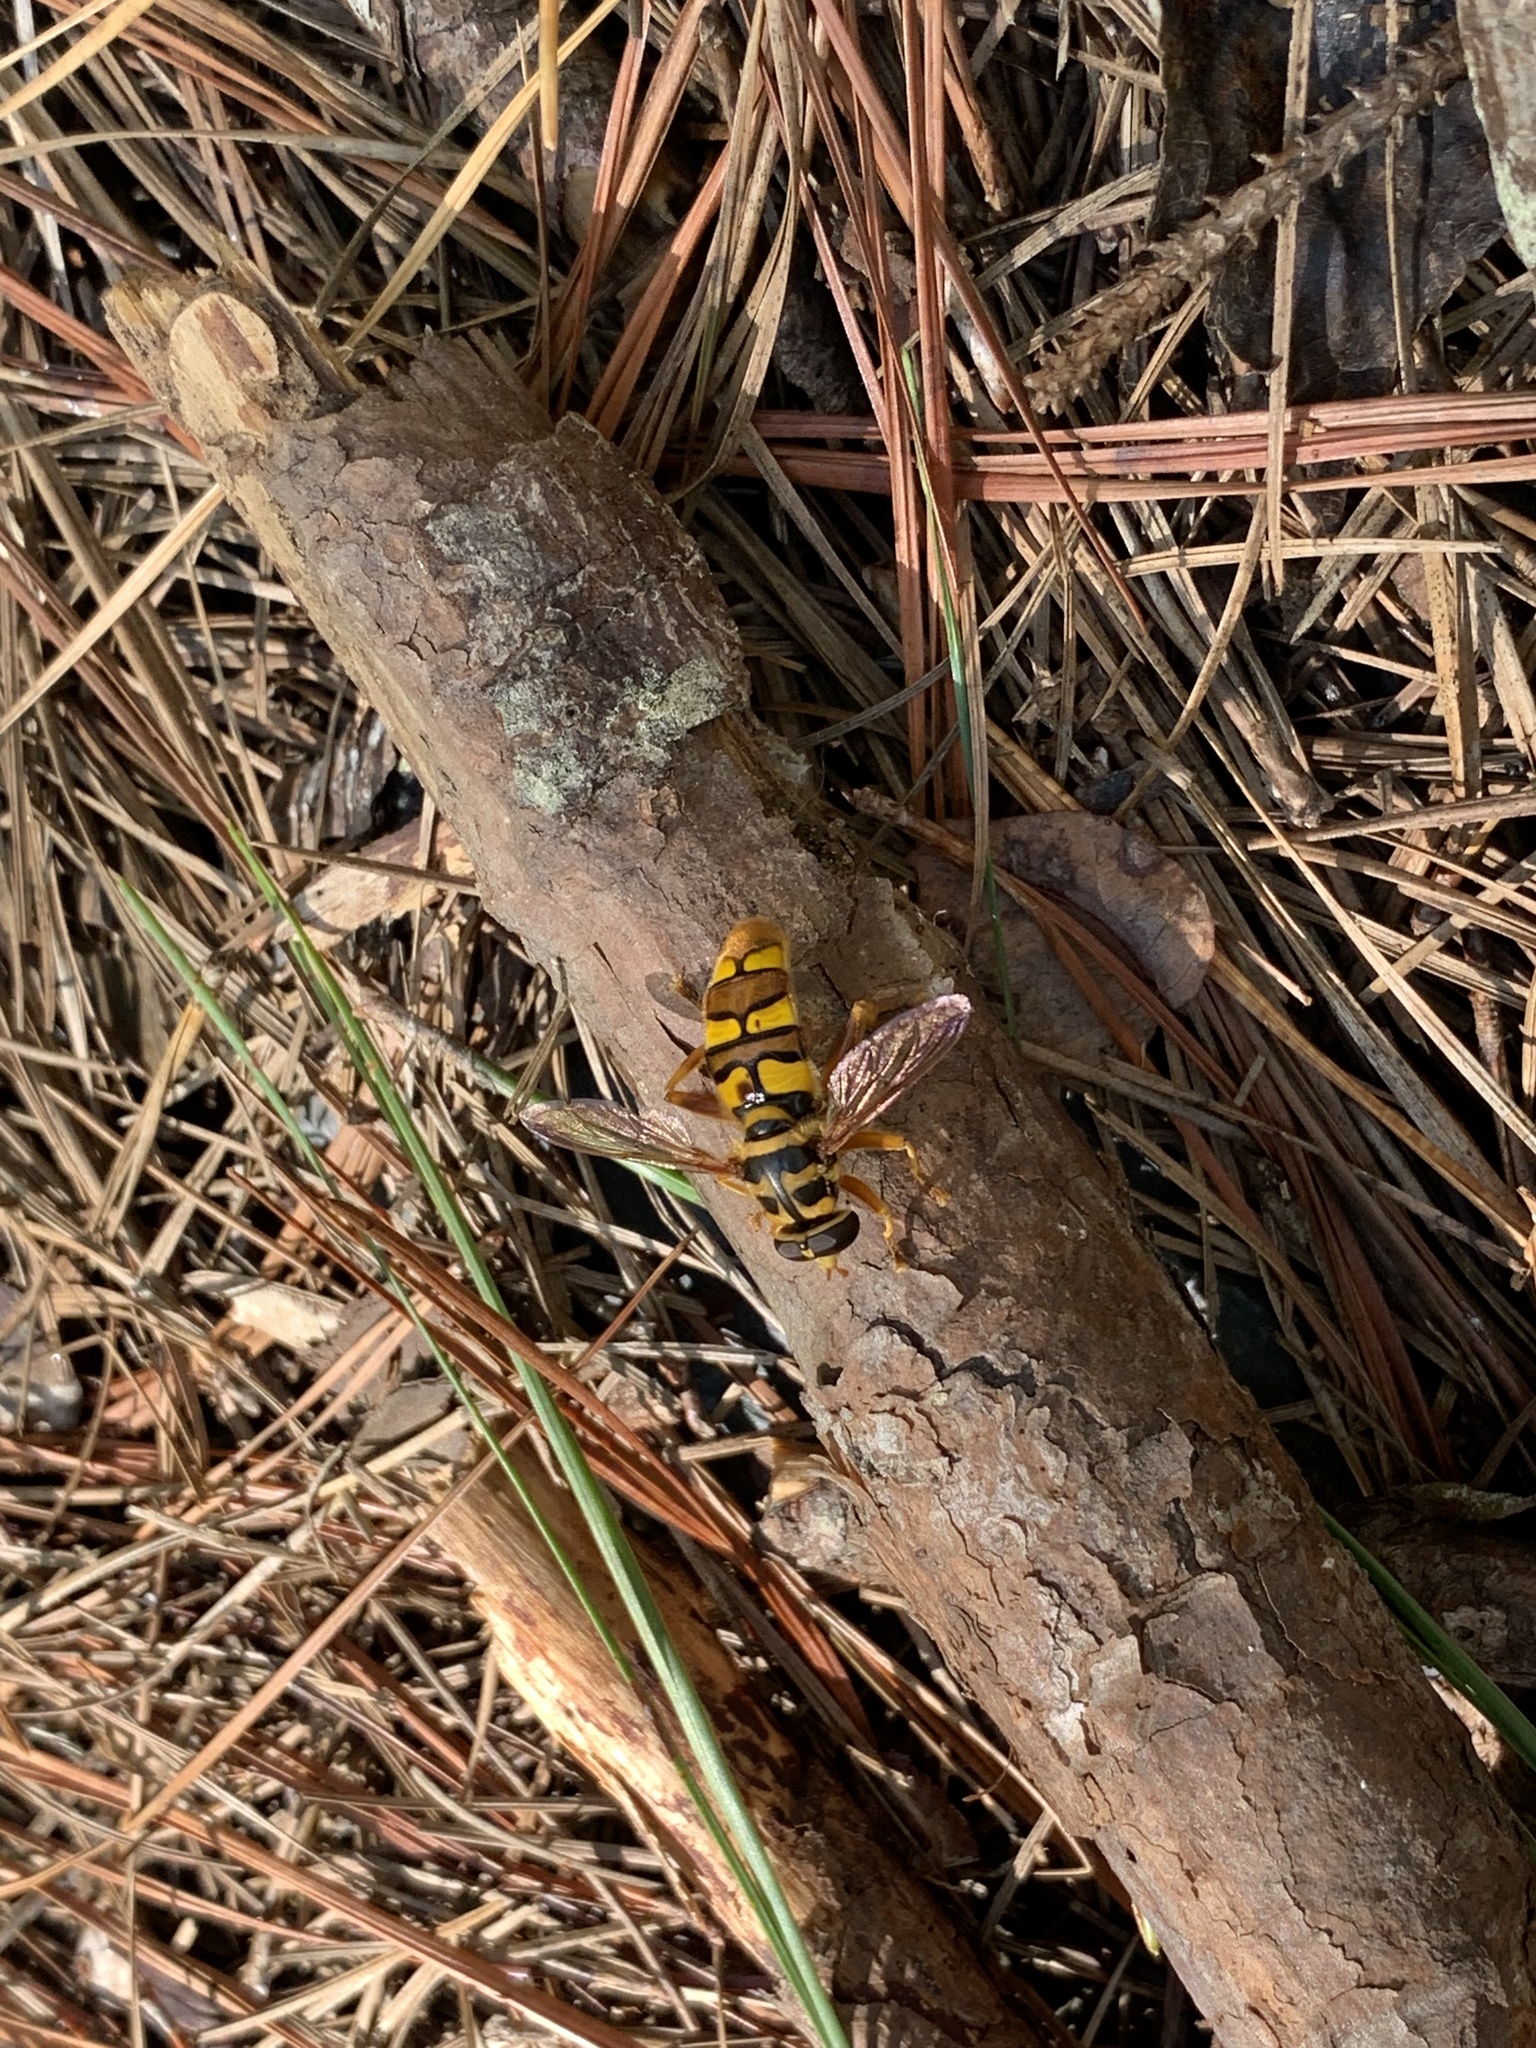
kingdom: Animalia
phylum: Arthropoda
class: Insecta
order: Diptera
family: Syrphidae
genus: Milesia
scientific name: Milesia virginiensis
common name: Virginia giant
